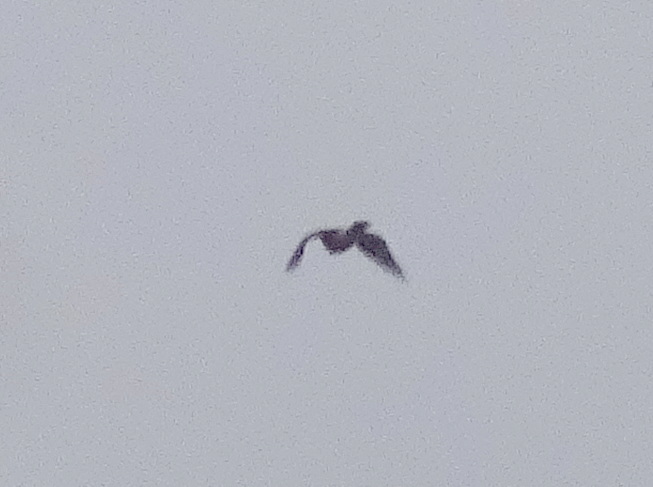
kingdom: Animalia
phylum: Chordata
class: Aves
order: Accipitriformes
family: Accipitridae
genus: Accipiter
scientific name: Accipiter gentilis
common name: Northern goshawk
